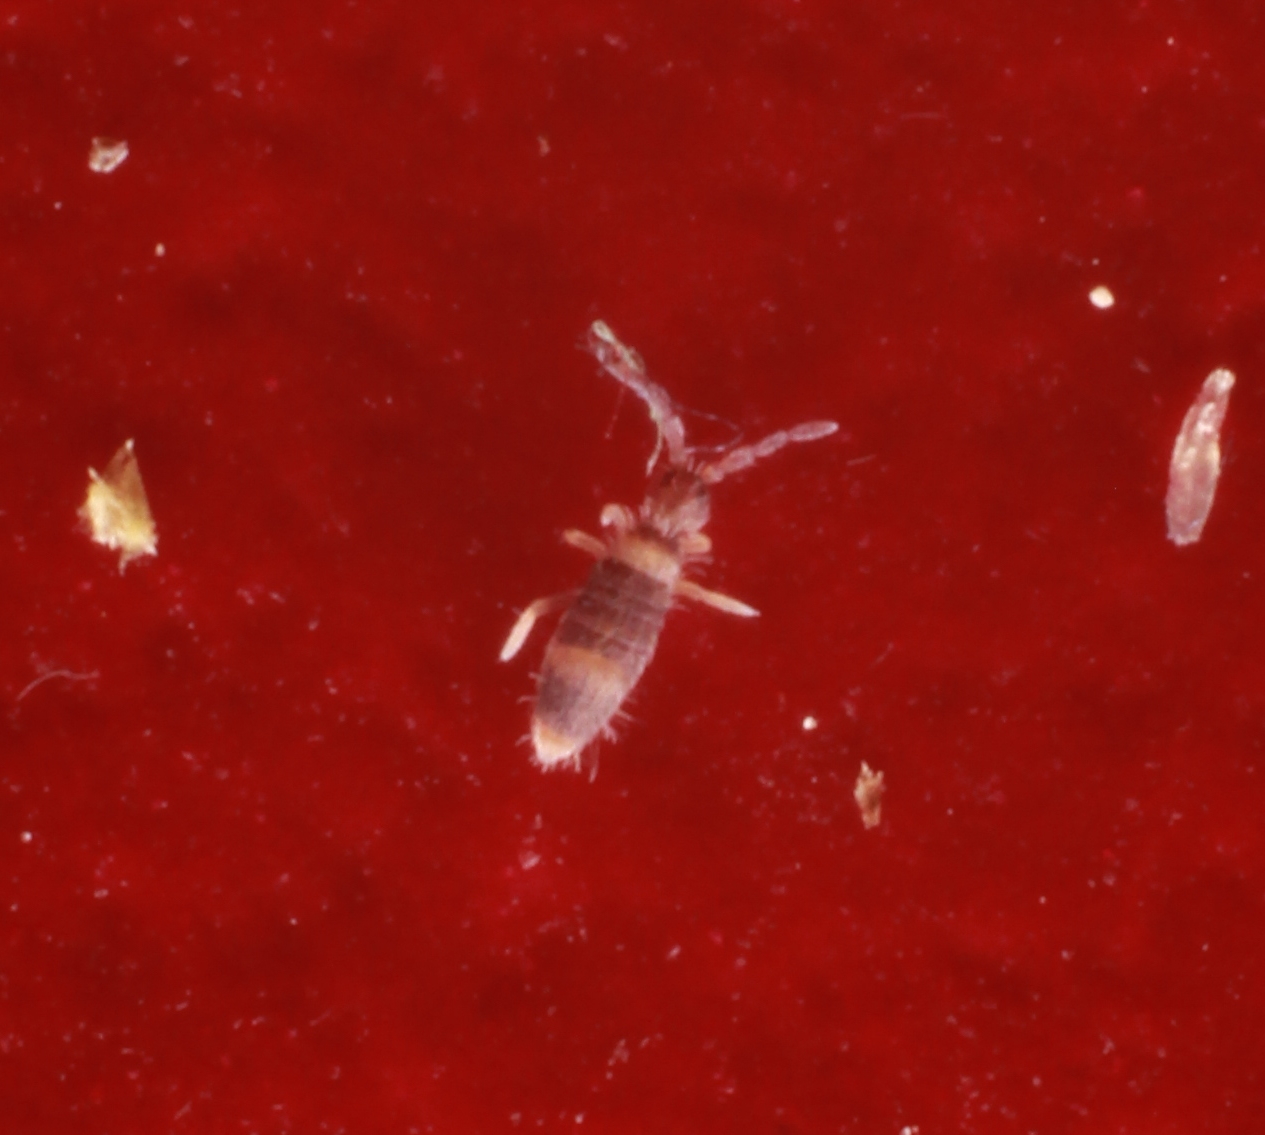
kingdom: Animalia
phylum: Arthropoda
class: Collembola
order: Entomobryomorpha
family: Entomobryidae
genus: Entomobrya
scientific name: Entomobrya albocincta
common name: Springtail
